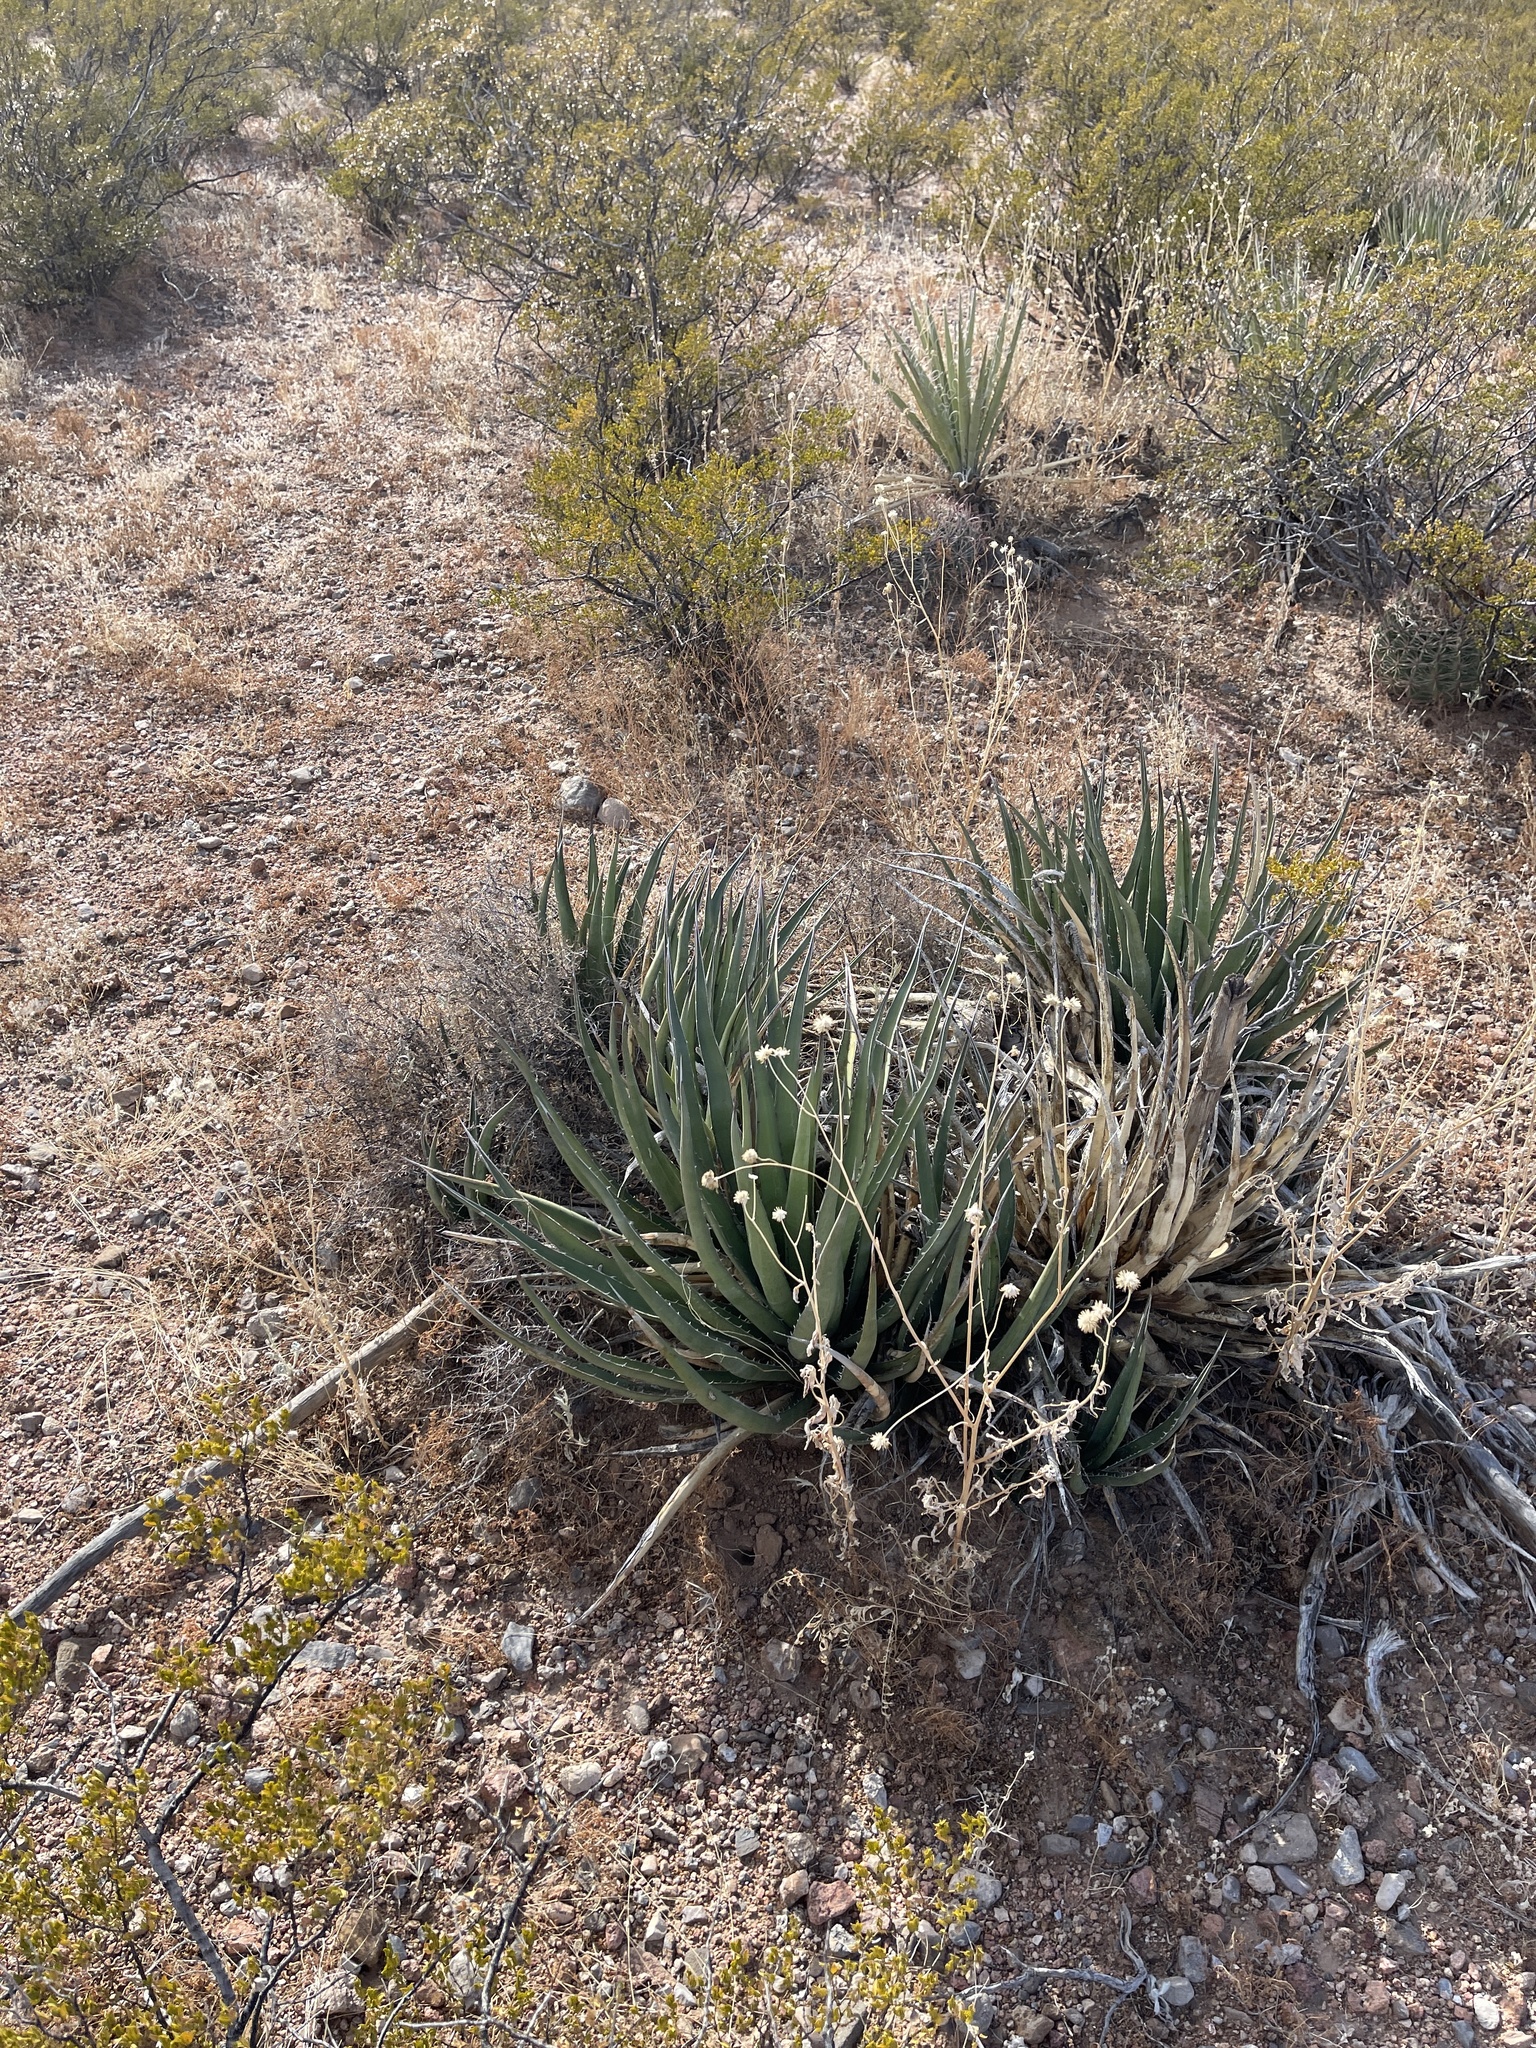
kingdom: Plantae
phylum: Tracheophyta
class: Liliopsida
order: Asparagales
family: Asparagaceae
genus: Agave
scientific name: Agave lechuguilla
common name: Lecheguilla agave
